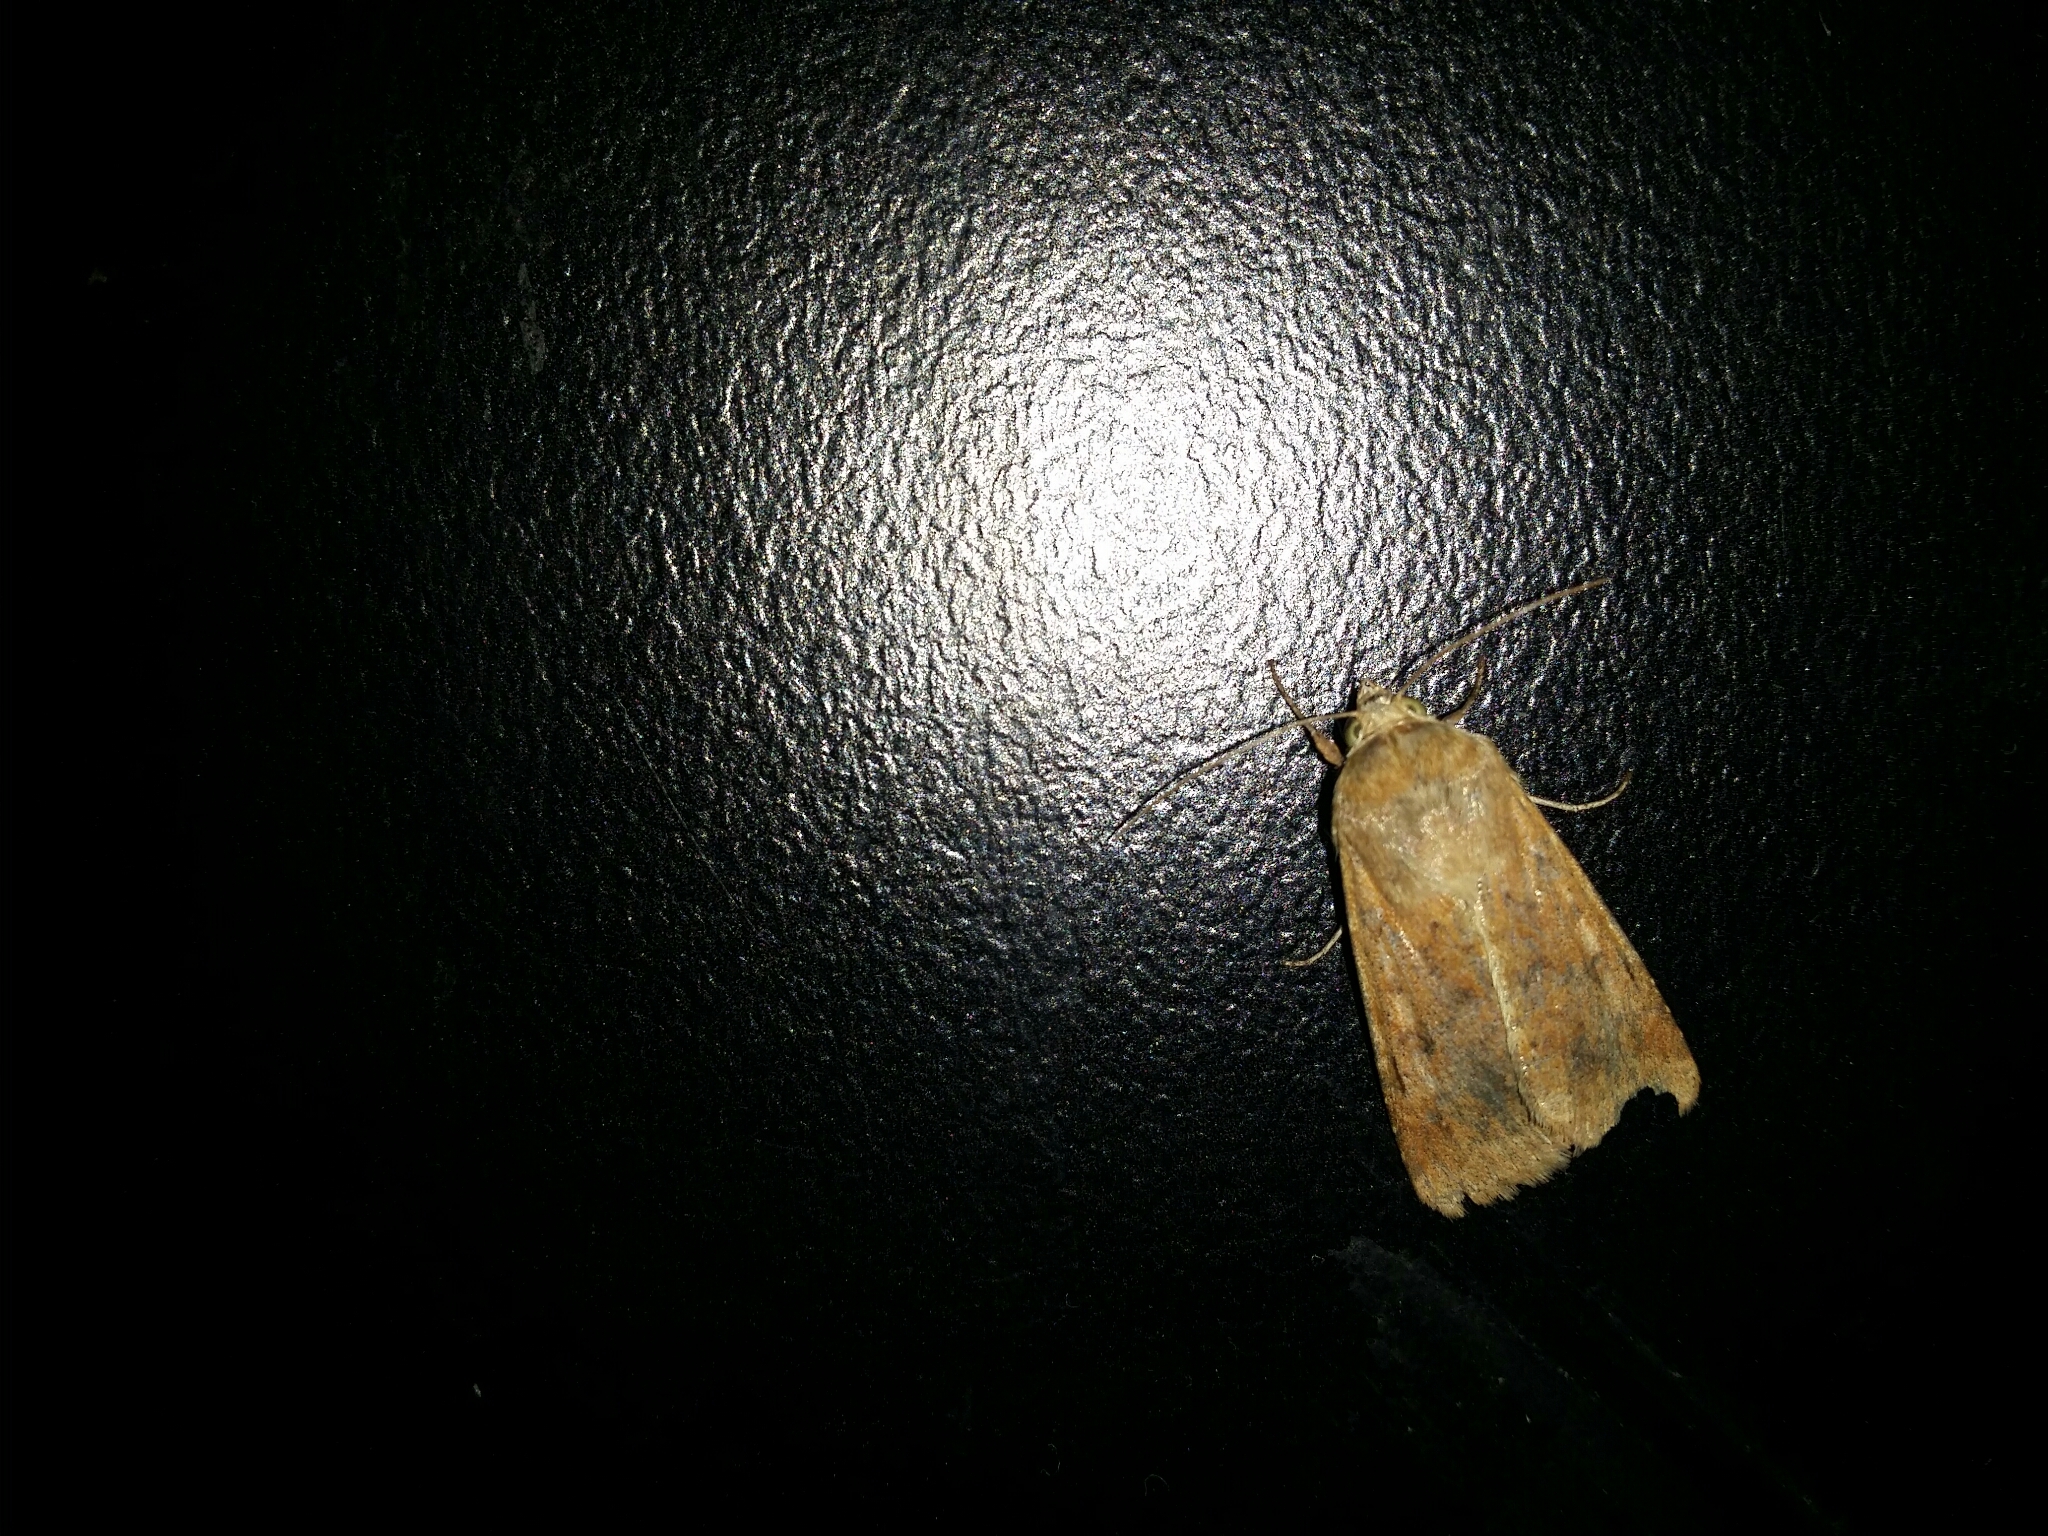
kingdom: Animalia
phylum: Arthropoda
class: Insecta
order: Lepidoptera
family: Noctuidae
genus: Australothis
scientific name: Australothis rubrescens
